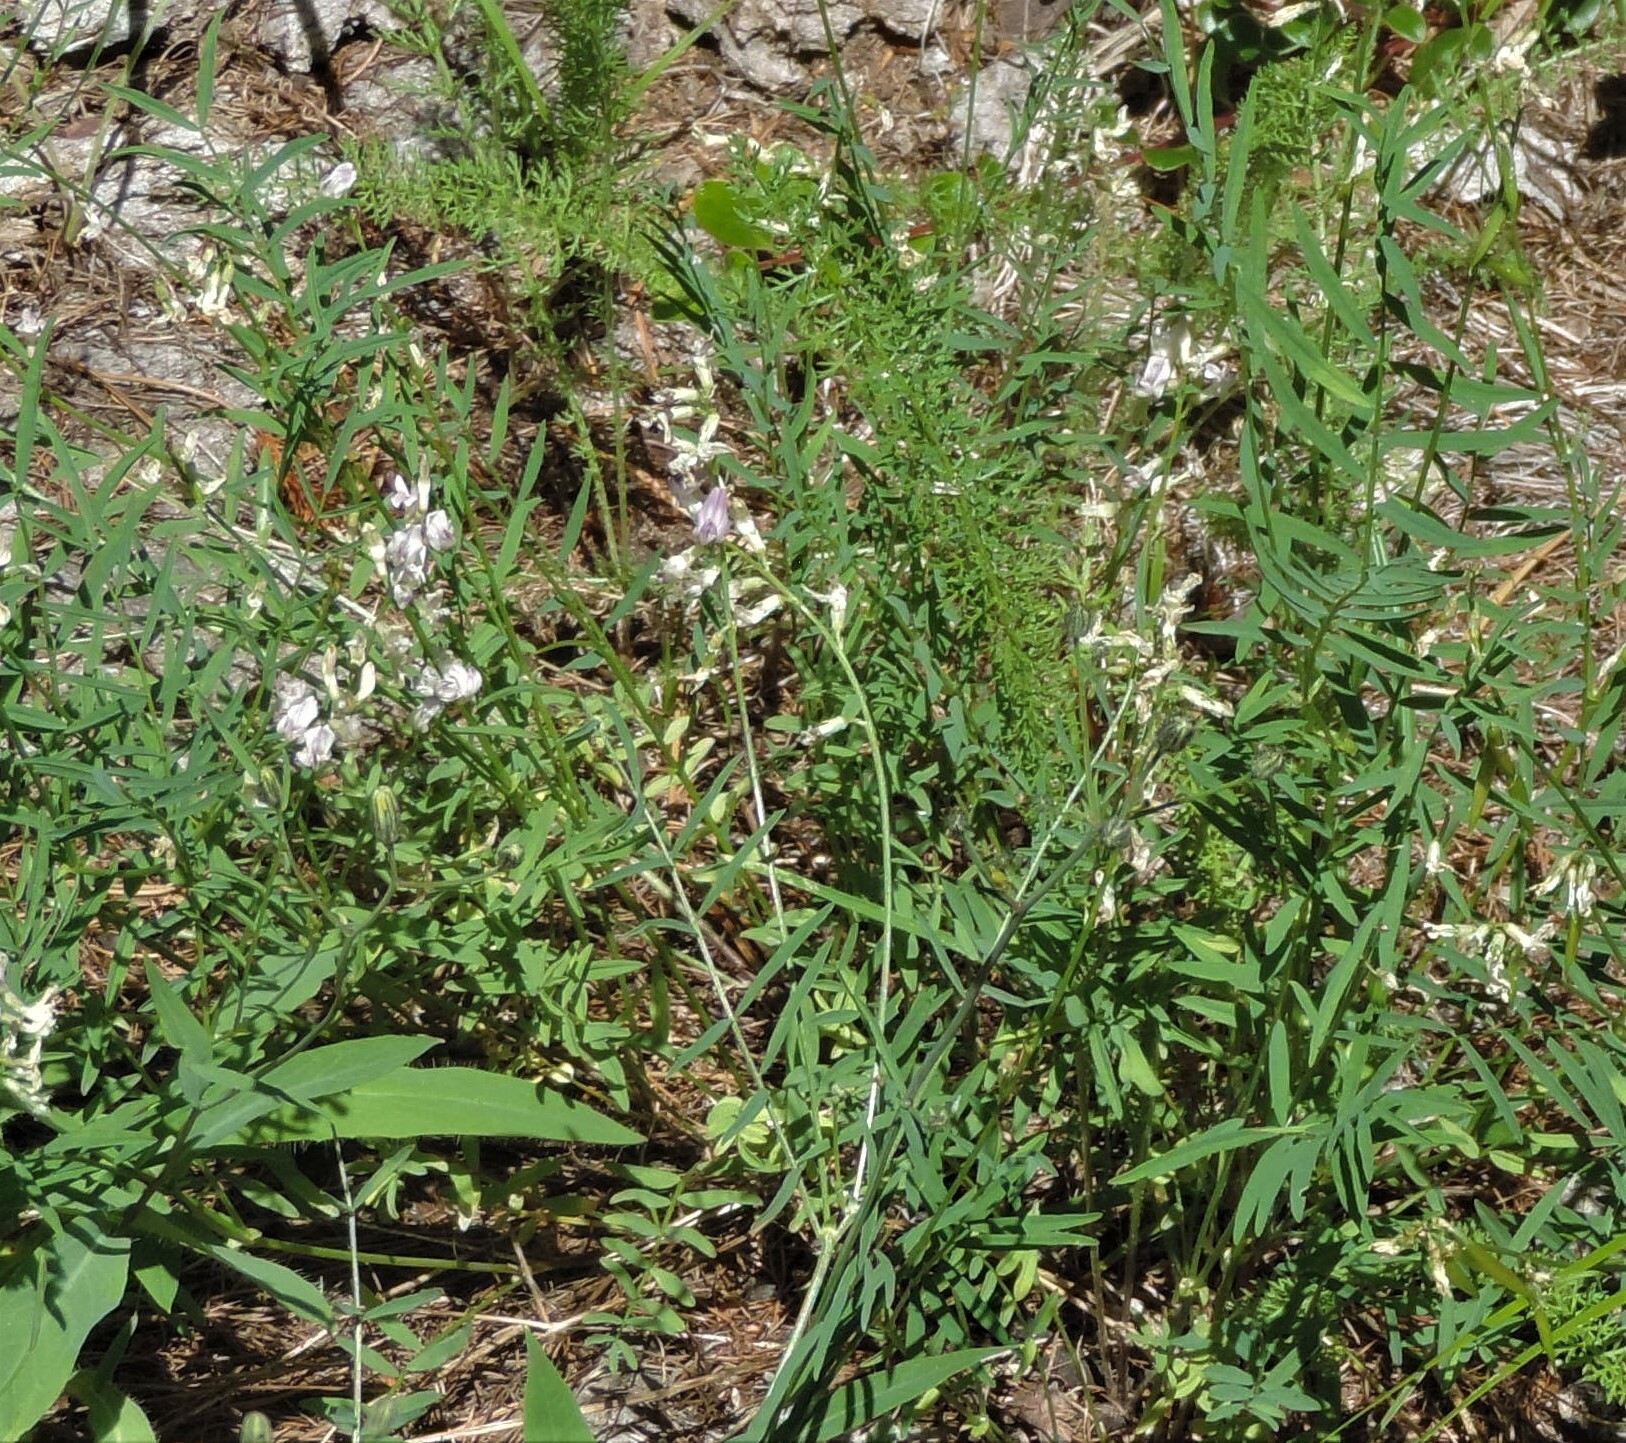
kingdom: Plantae
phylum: Tracheophyta
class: Magnoliopsida
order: Fabales
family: Fabaceae
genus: Astragalus
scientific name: Astragalus miser
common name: Timber milkvetch
